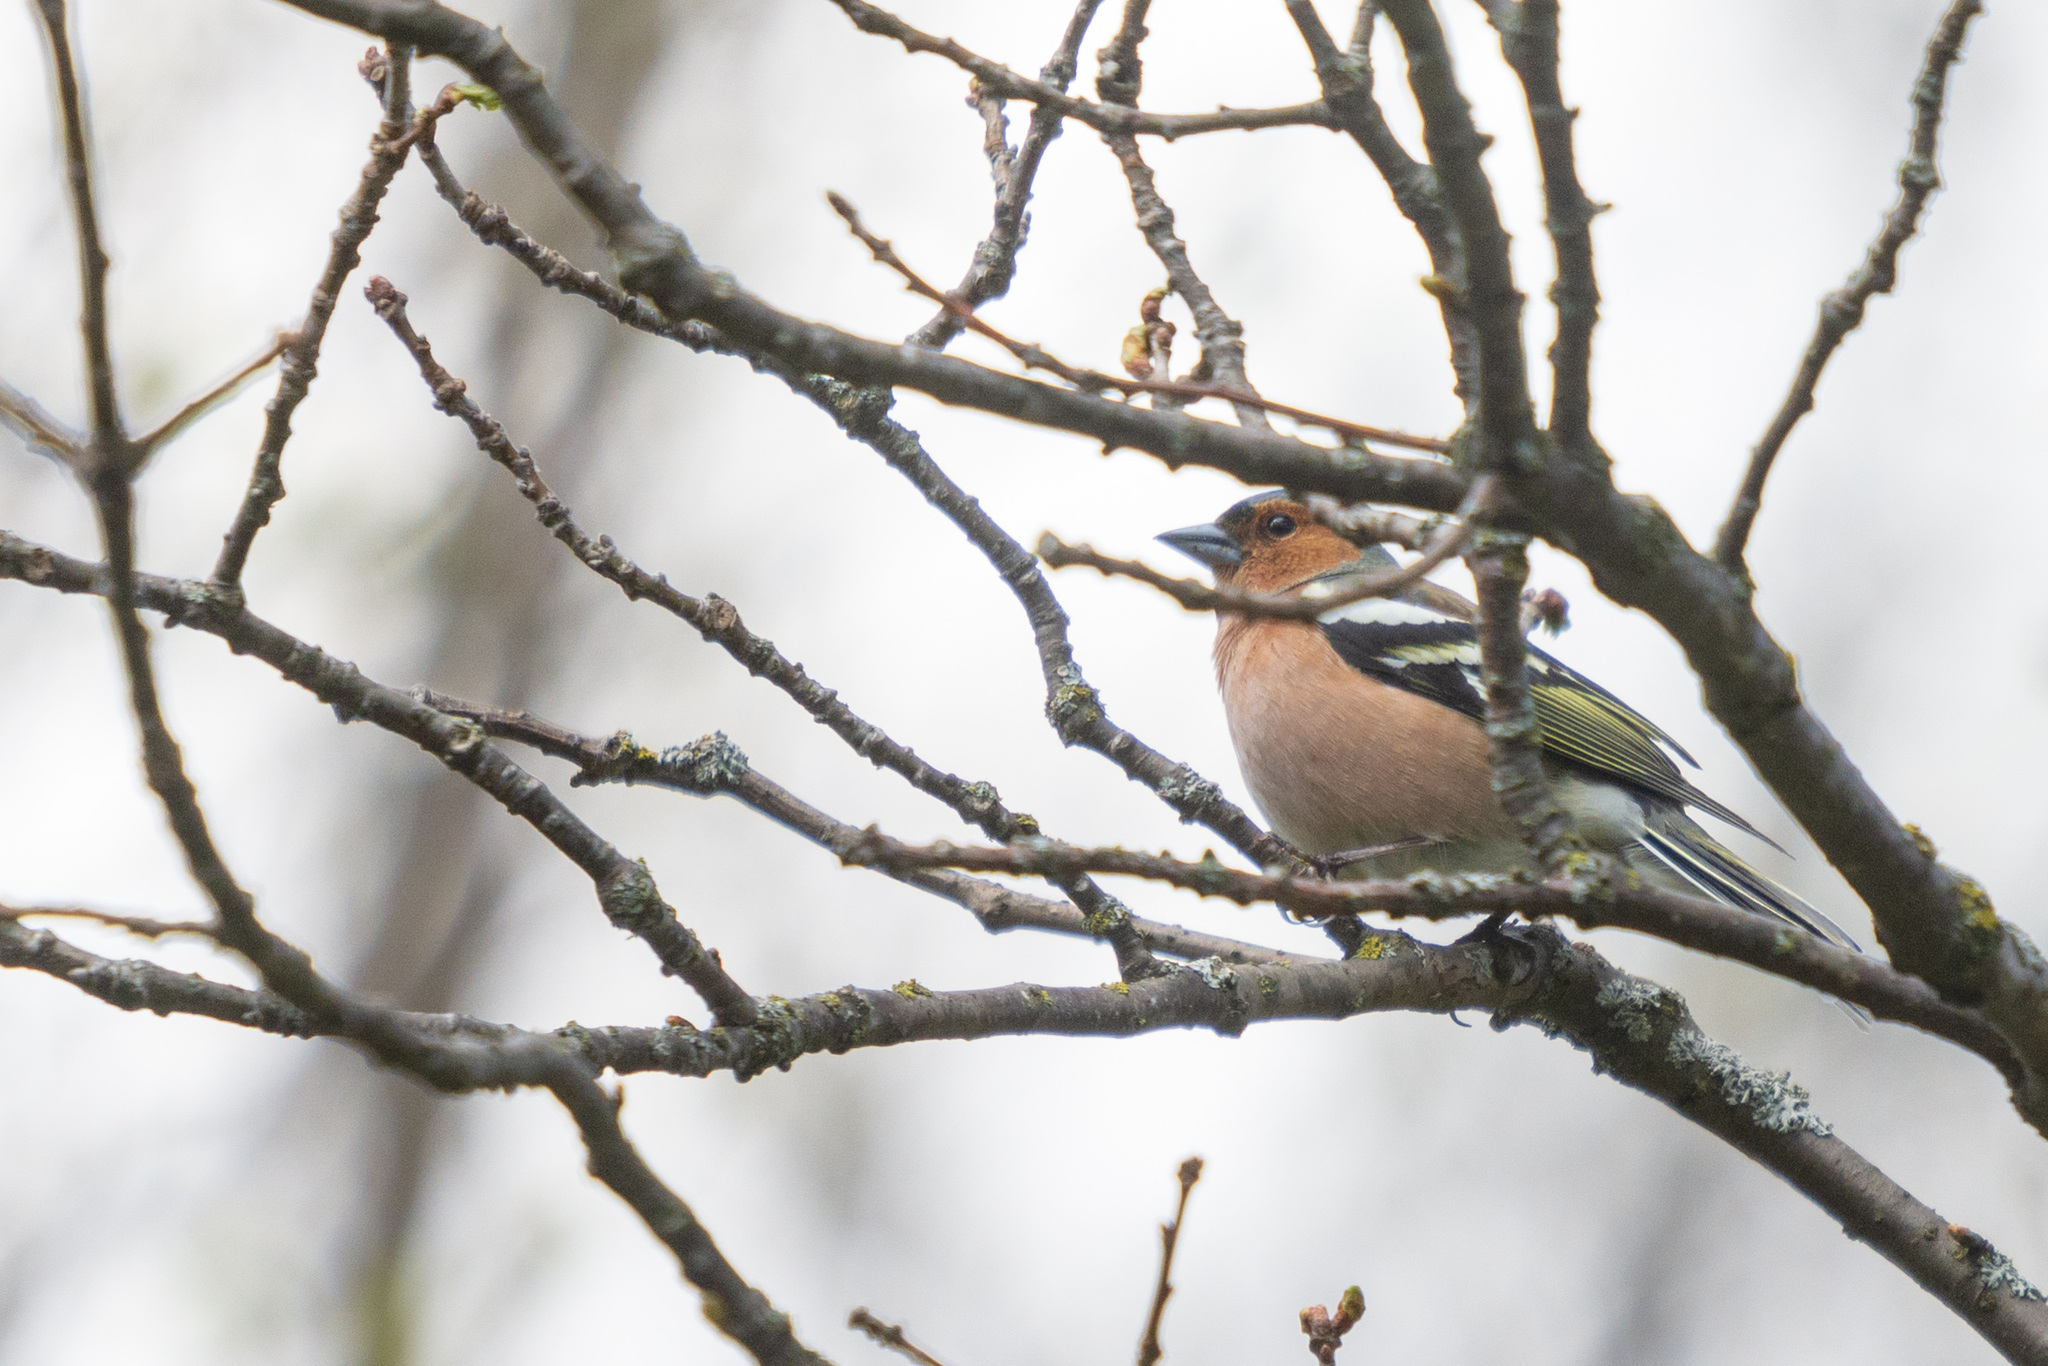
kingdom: Animalia
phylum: Chordata
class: Aves
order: Passeriformes
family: Fringillidae
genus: Fringilla
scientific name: Fringilla coelebs
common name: Common chaffinch
